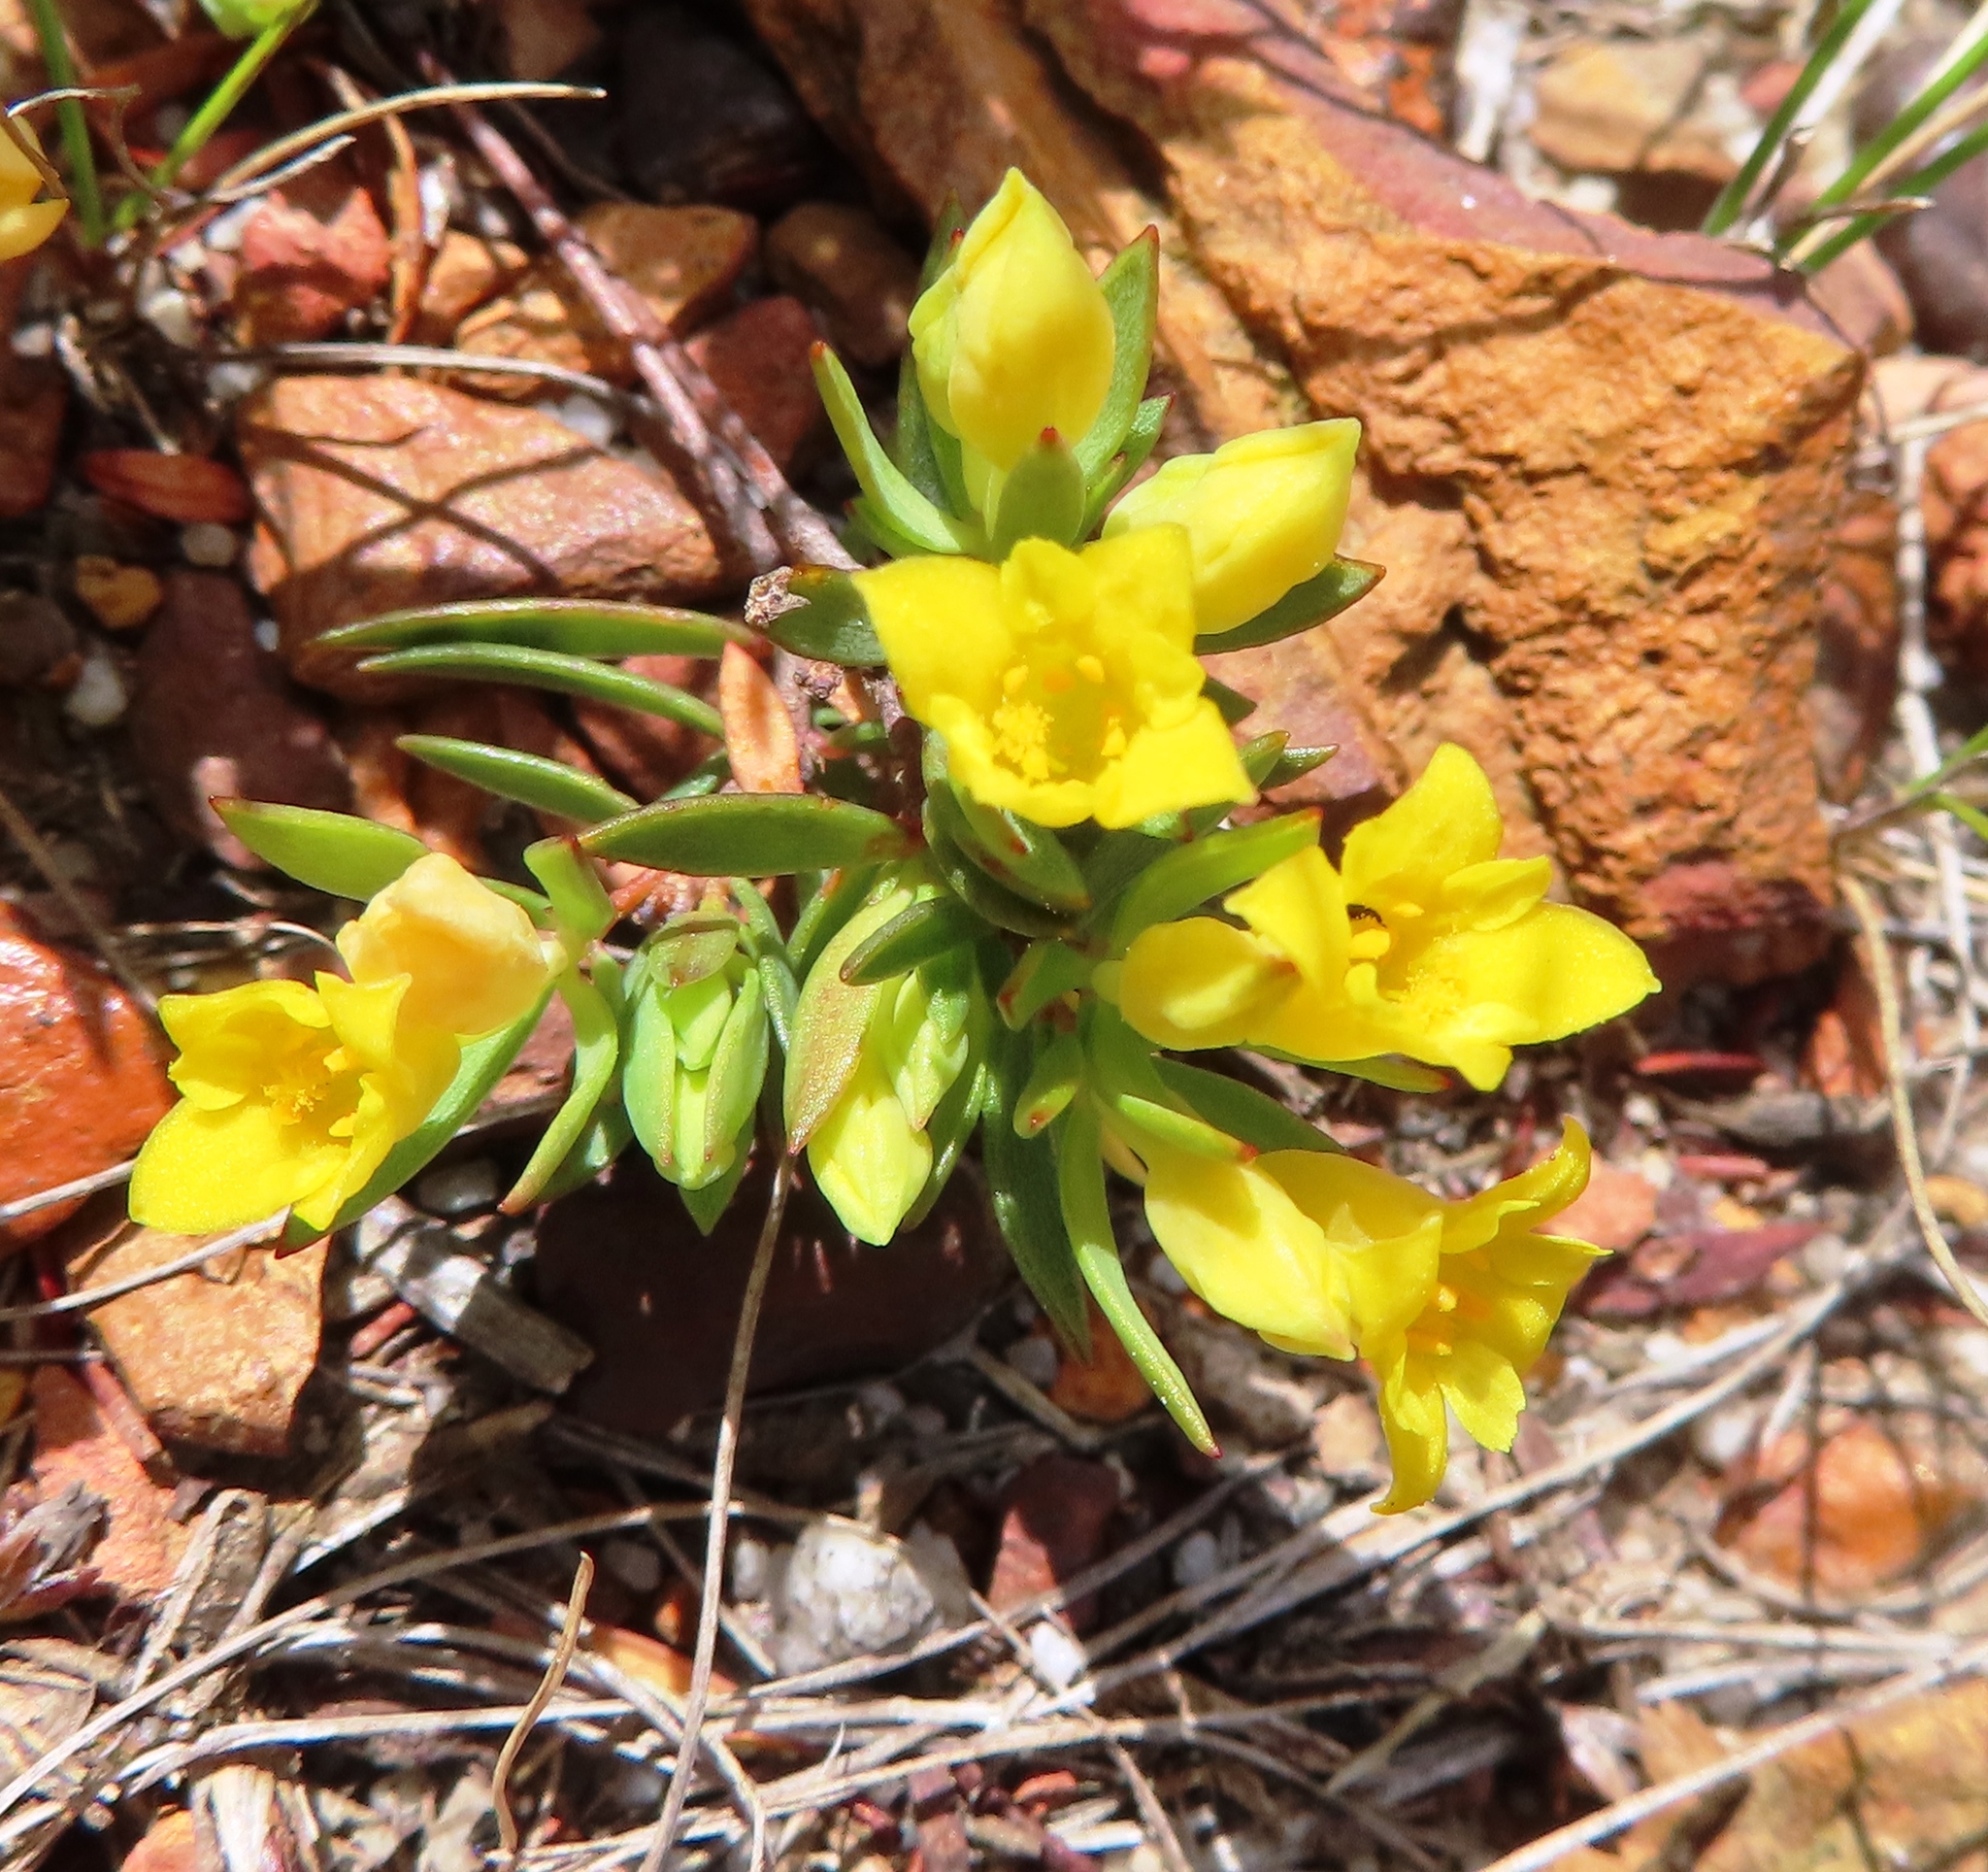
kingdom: Plantae
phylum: Tracheophyta
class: Magnoliopsida
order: Malvales
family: Thymelaeaceae
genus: Gnidia
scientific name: Gnidia juniperifolia
